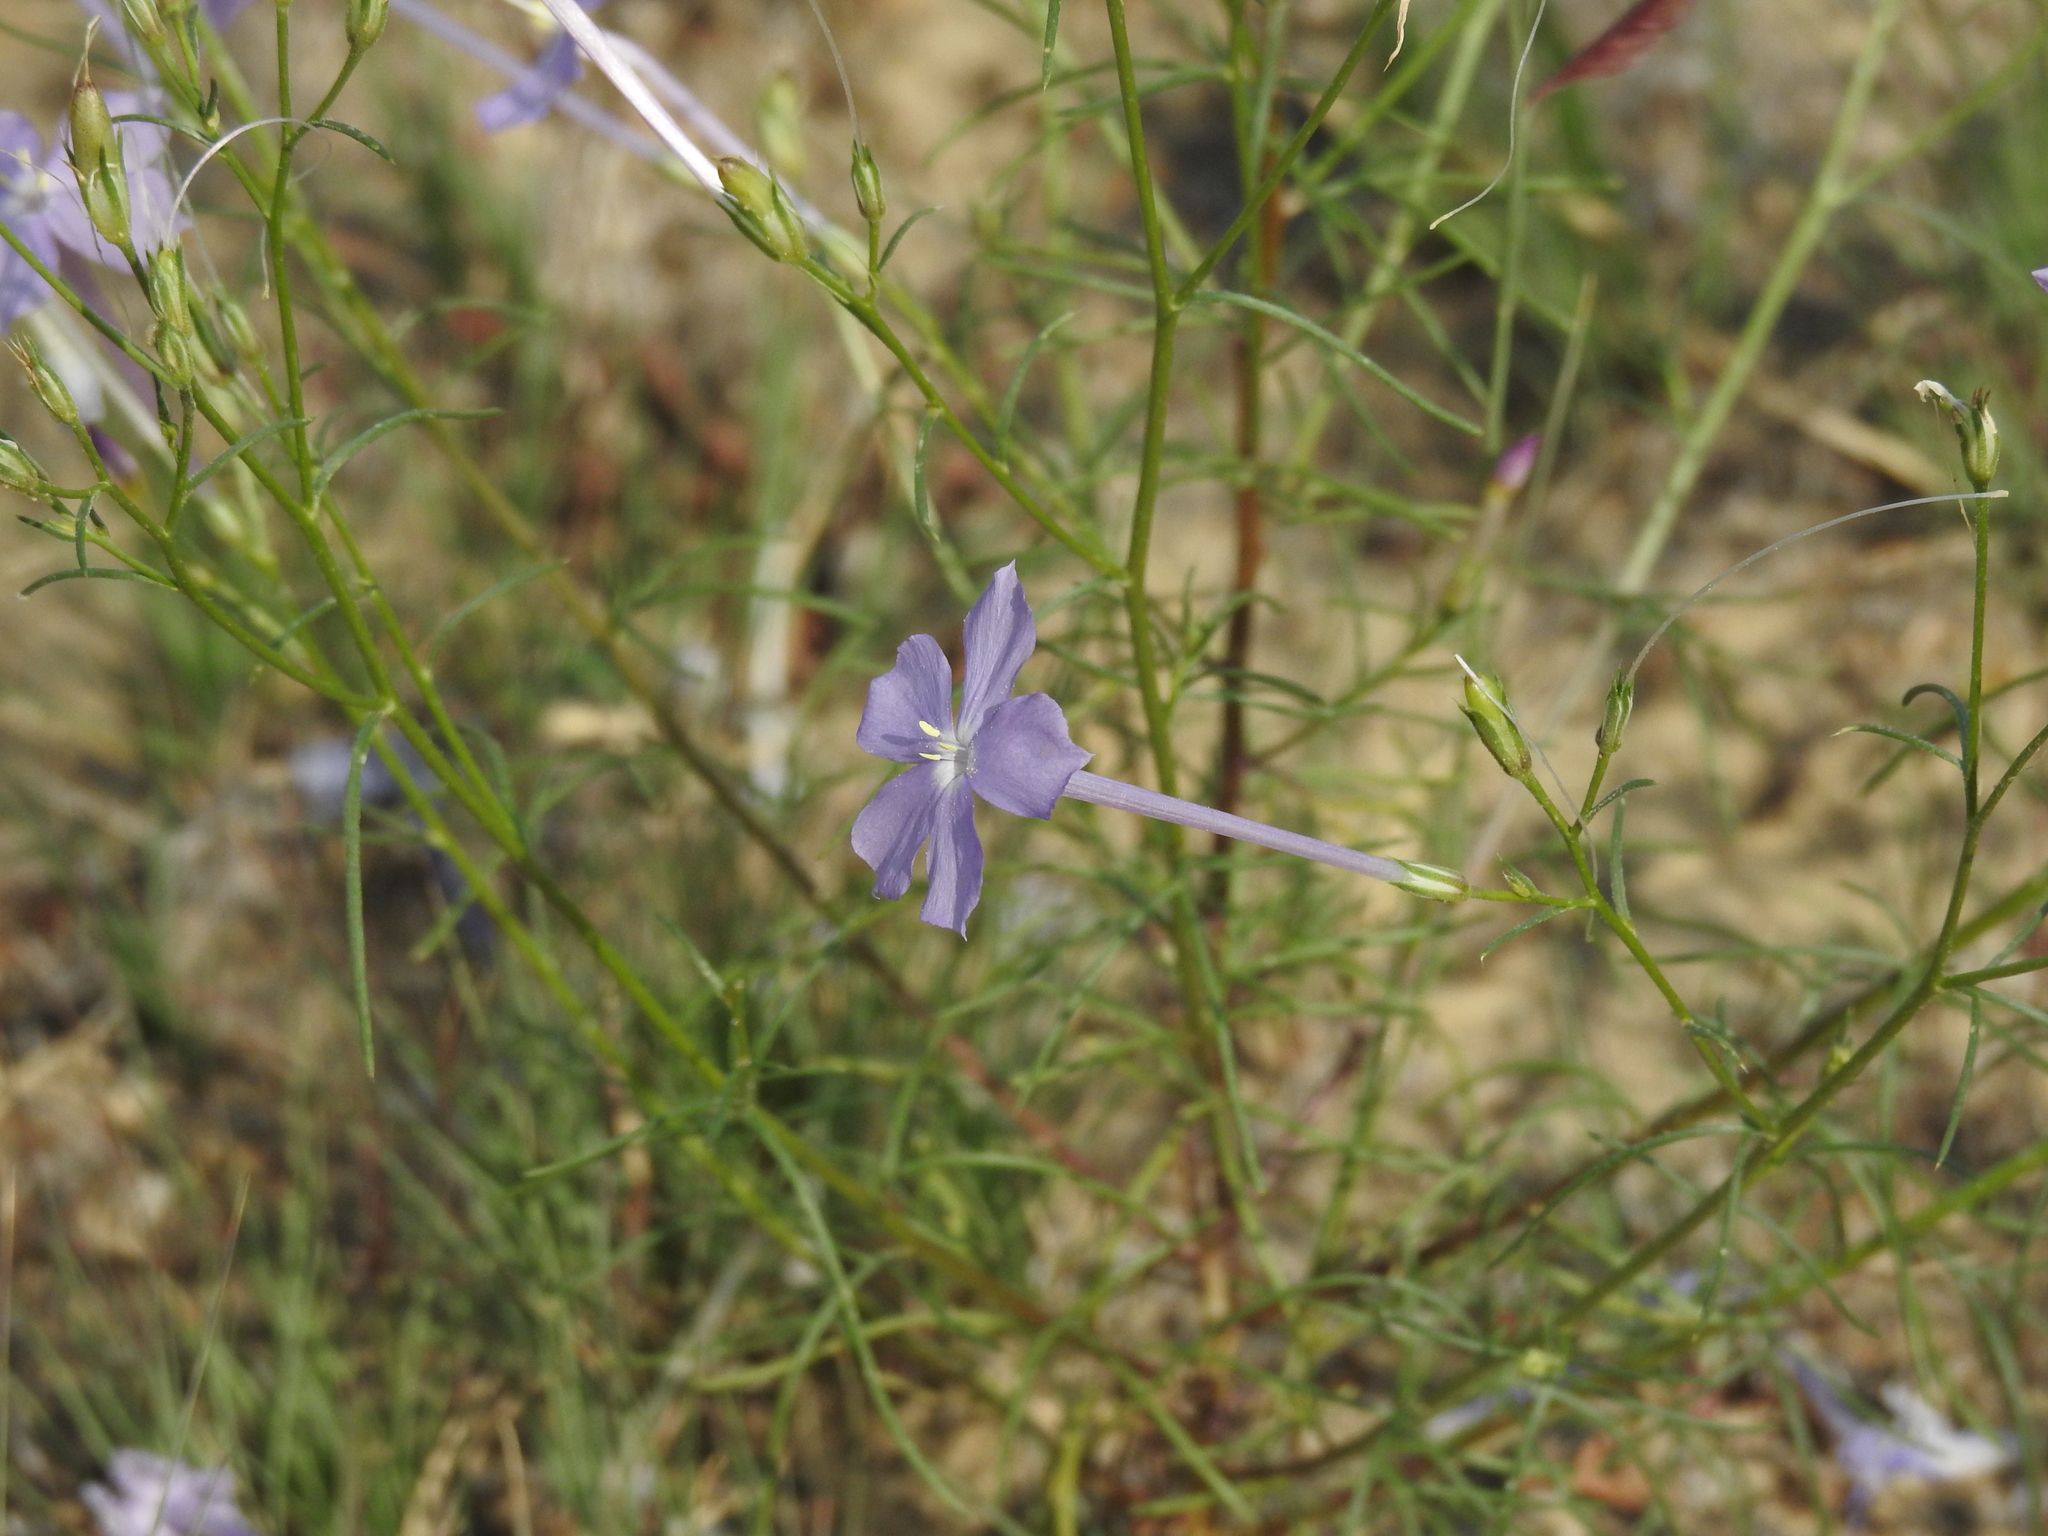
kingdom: Plantae
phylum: Tracheophyta
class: Magnoliopsida
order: Ericales
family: Polemoniaceae
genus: Ipomopsis
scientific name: Ipomopsis longiflora
